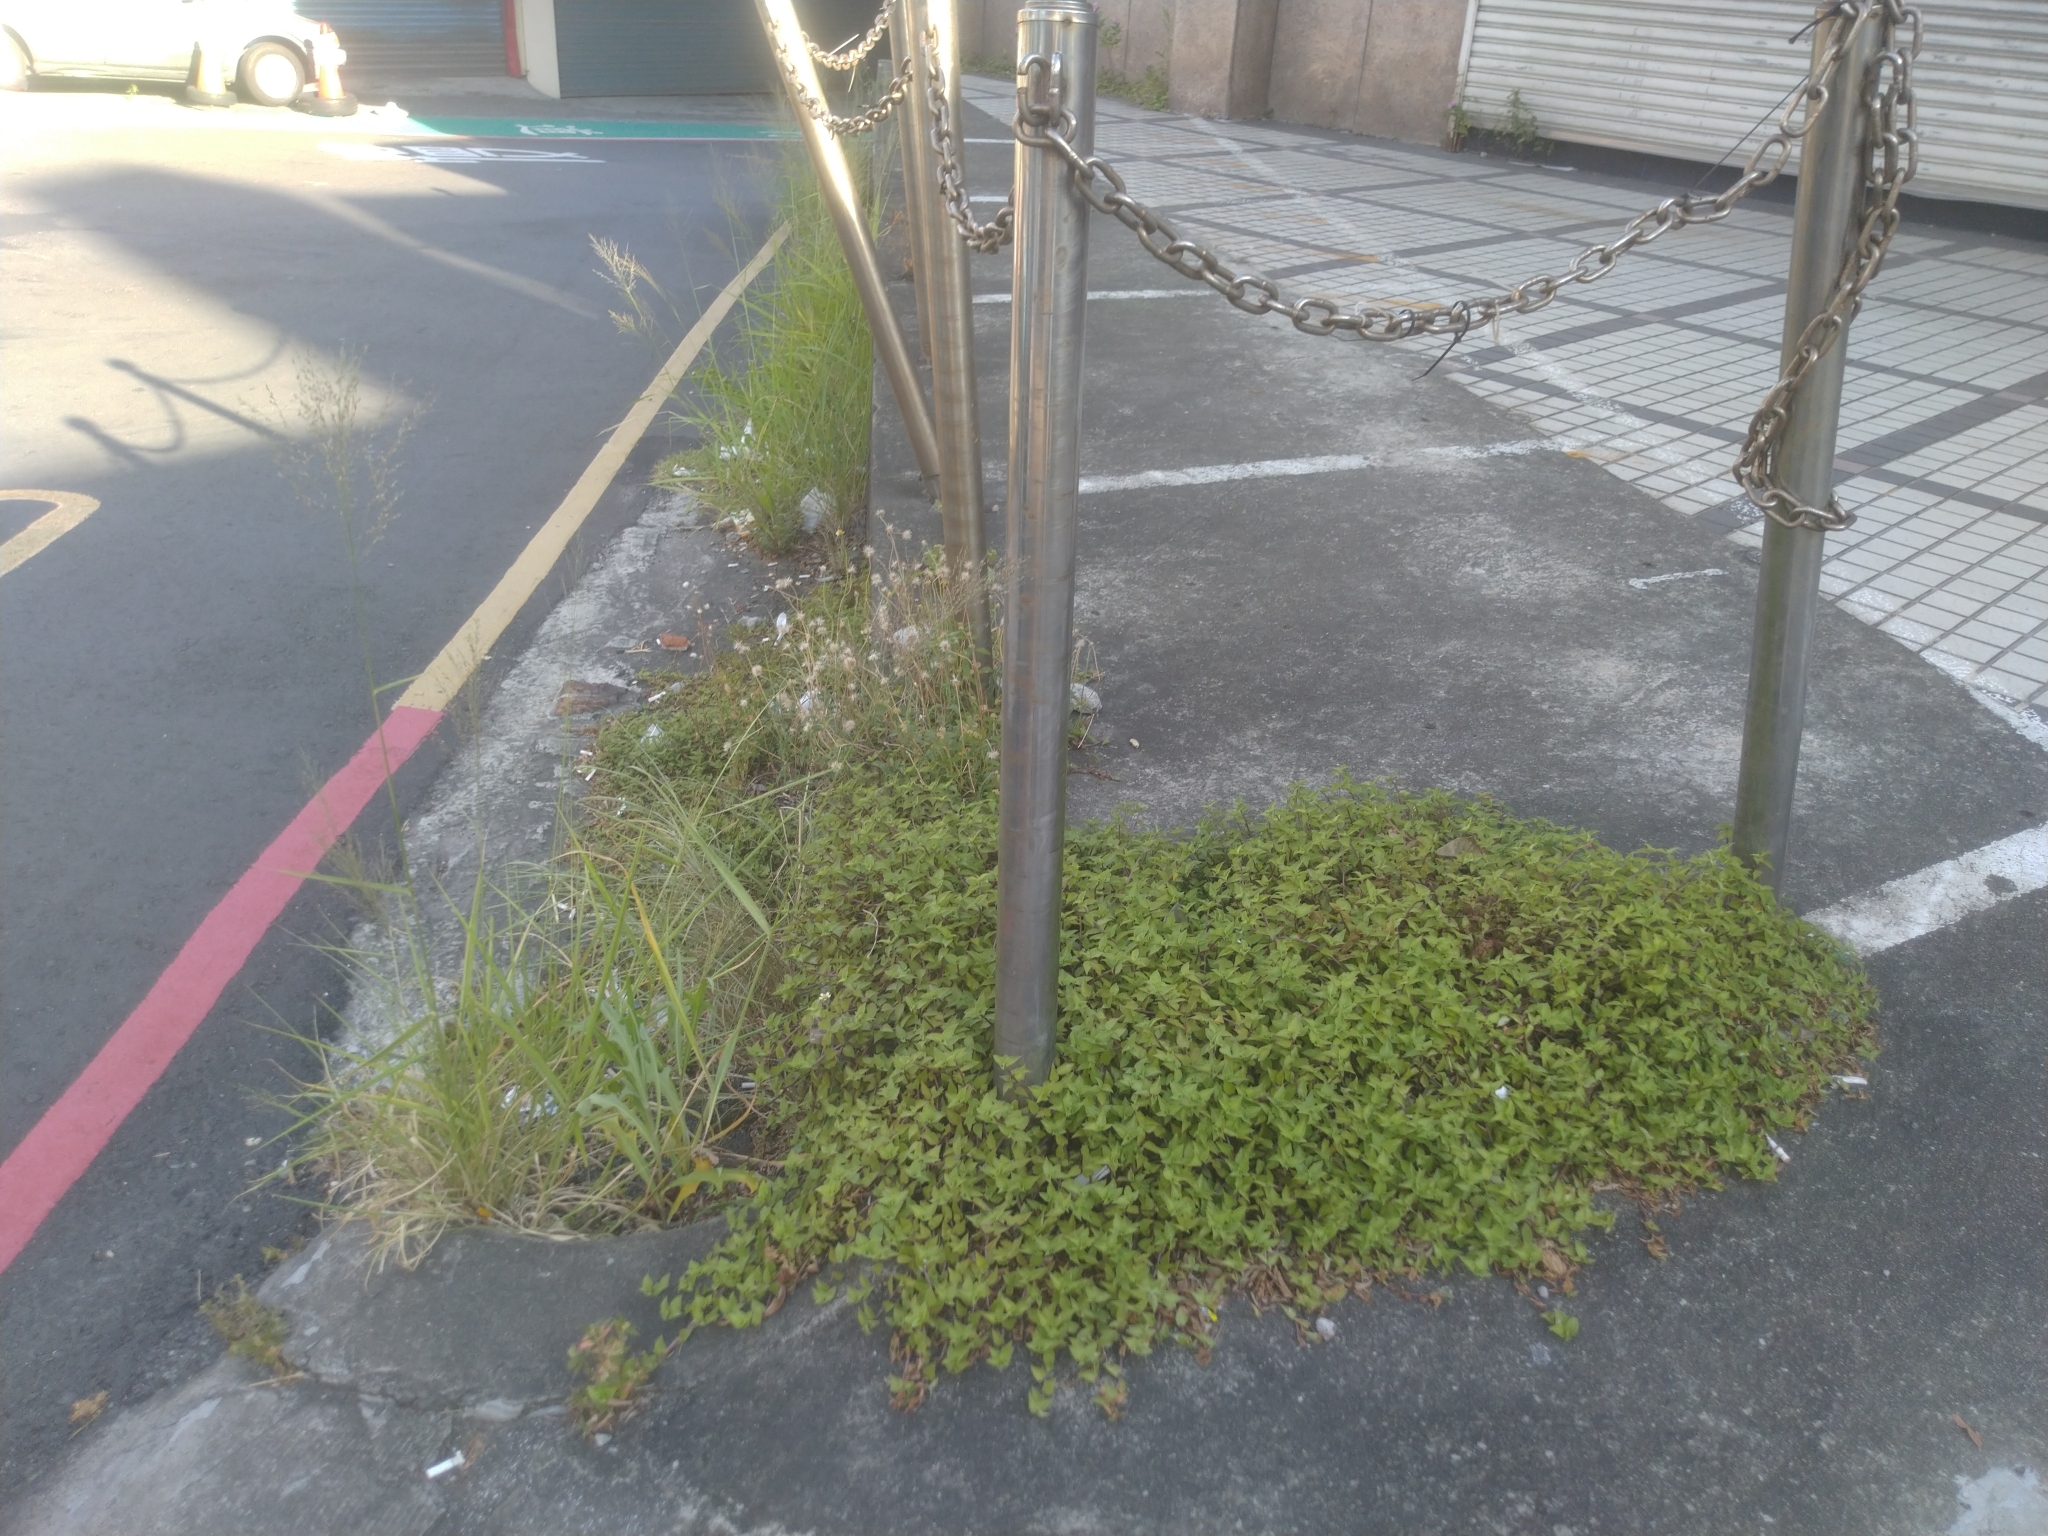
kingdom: Plantae
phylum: Tracheophyta
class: Liliopsida
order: Commelinales
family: Commelinaceae
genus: Callisia
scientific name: Callisia repens
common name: Creeping inchplant
